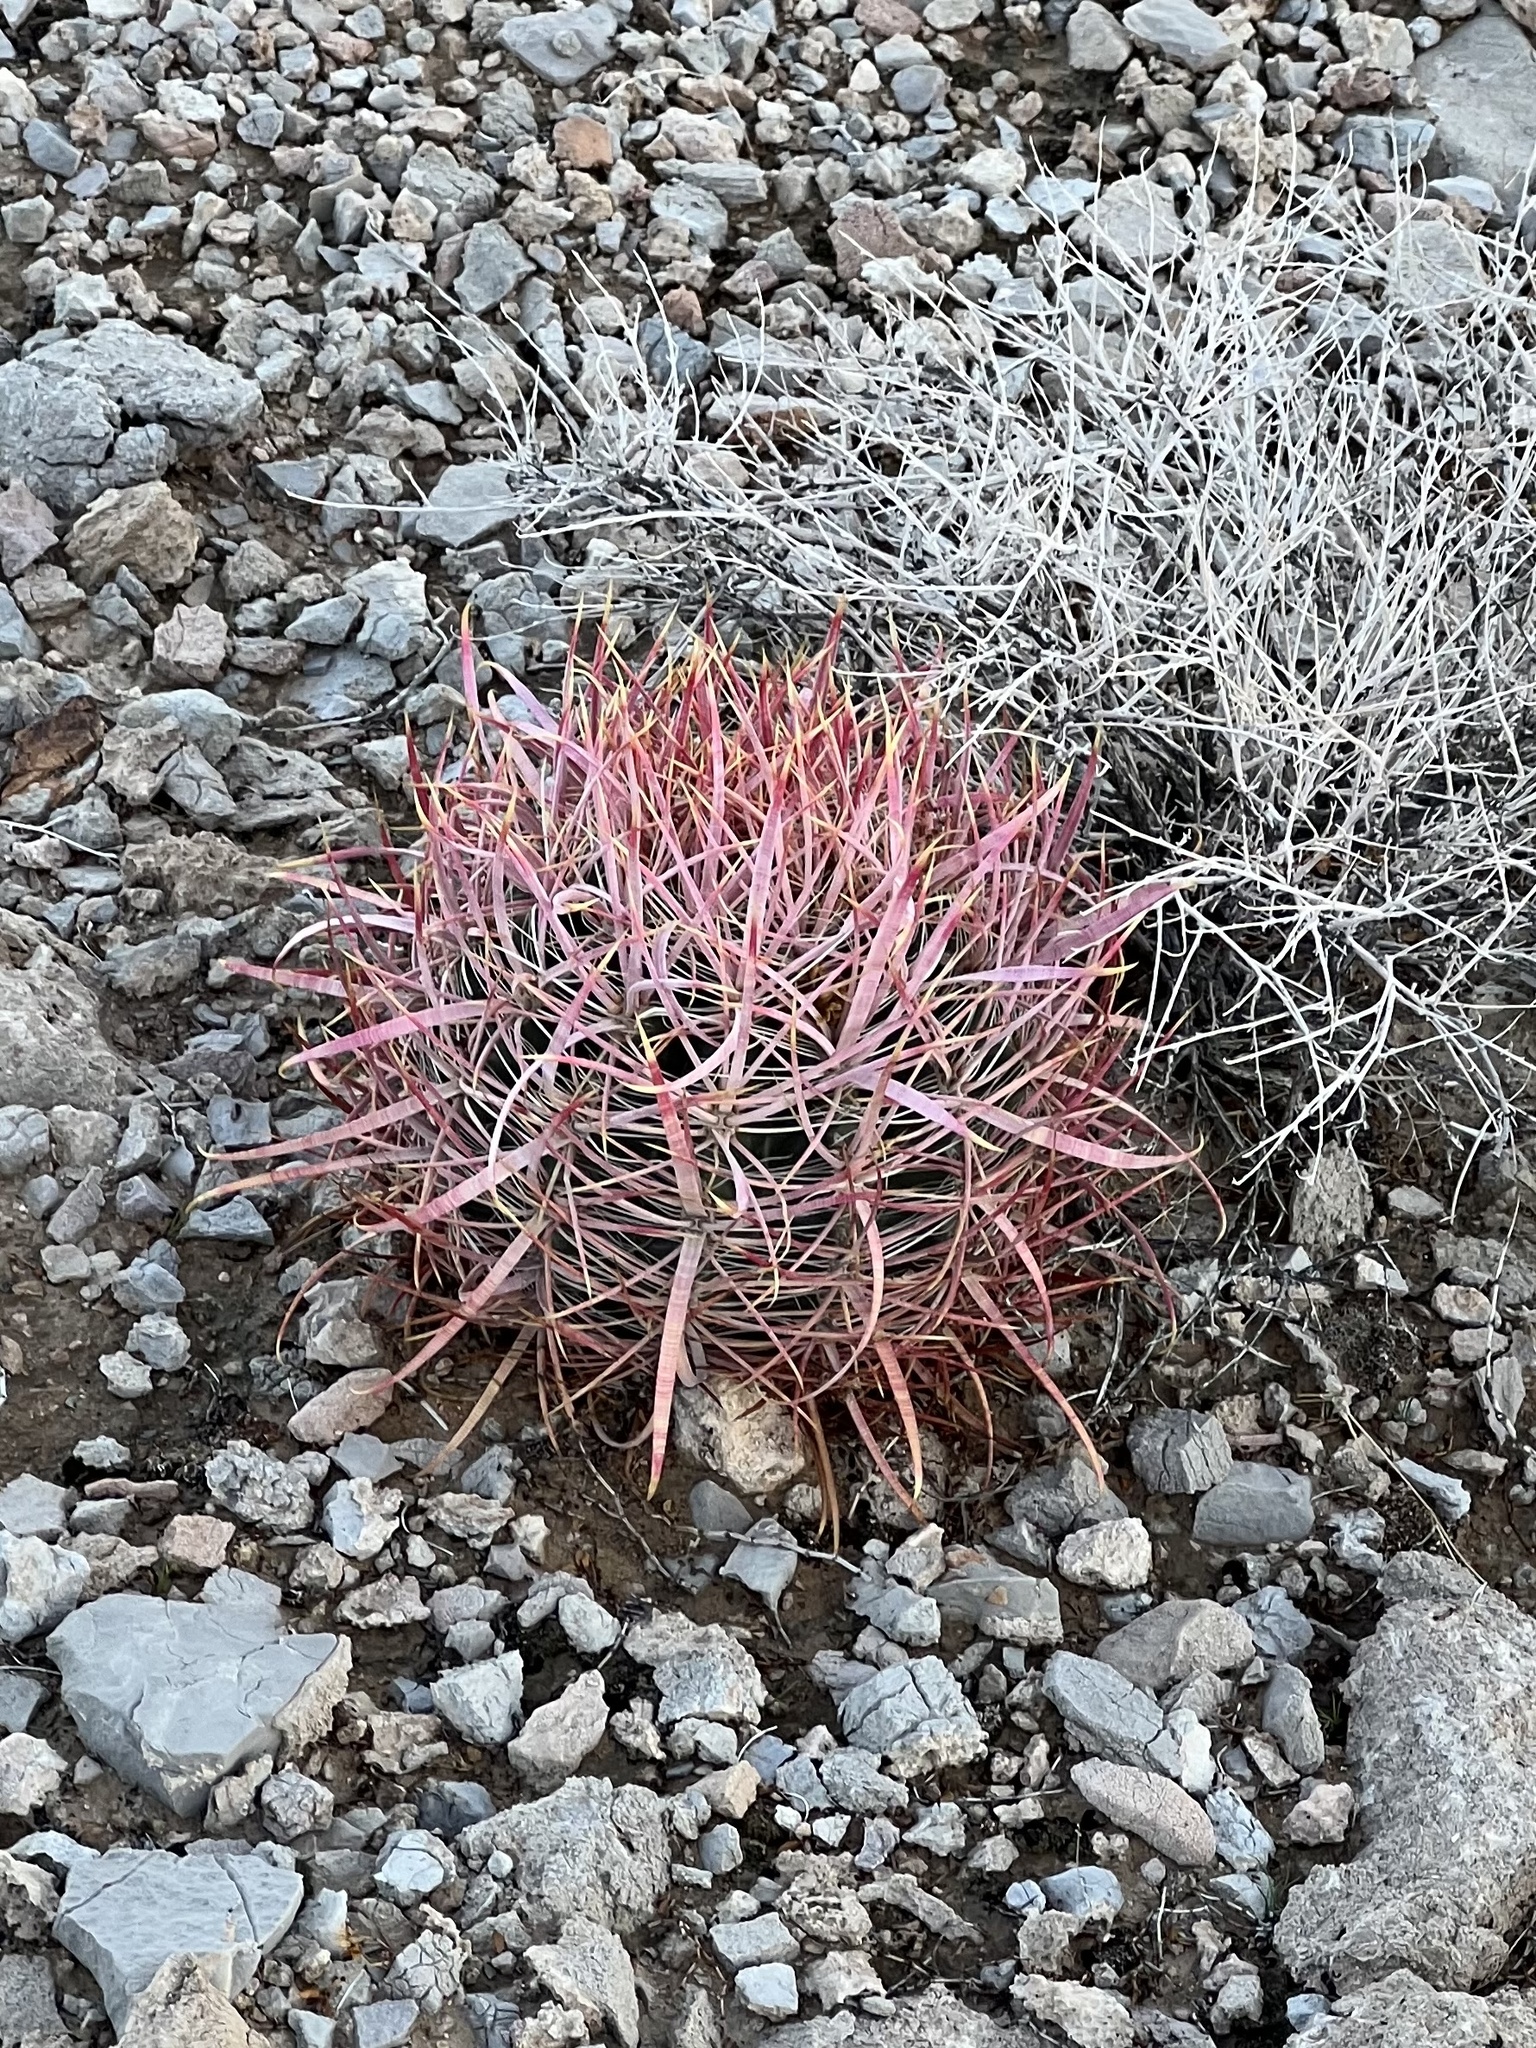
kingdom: Plantae
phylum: Tracheophyta
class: Magnoliopsida
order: Caryophyllales
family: Cactaceae
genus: Ferocactus
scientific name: Ferocactus cylindraceus
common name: California barrel cactus
